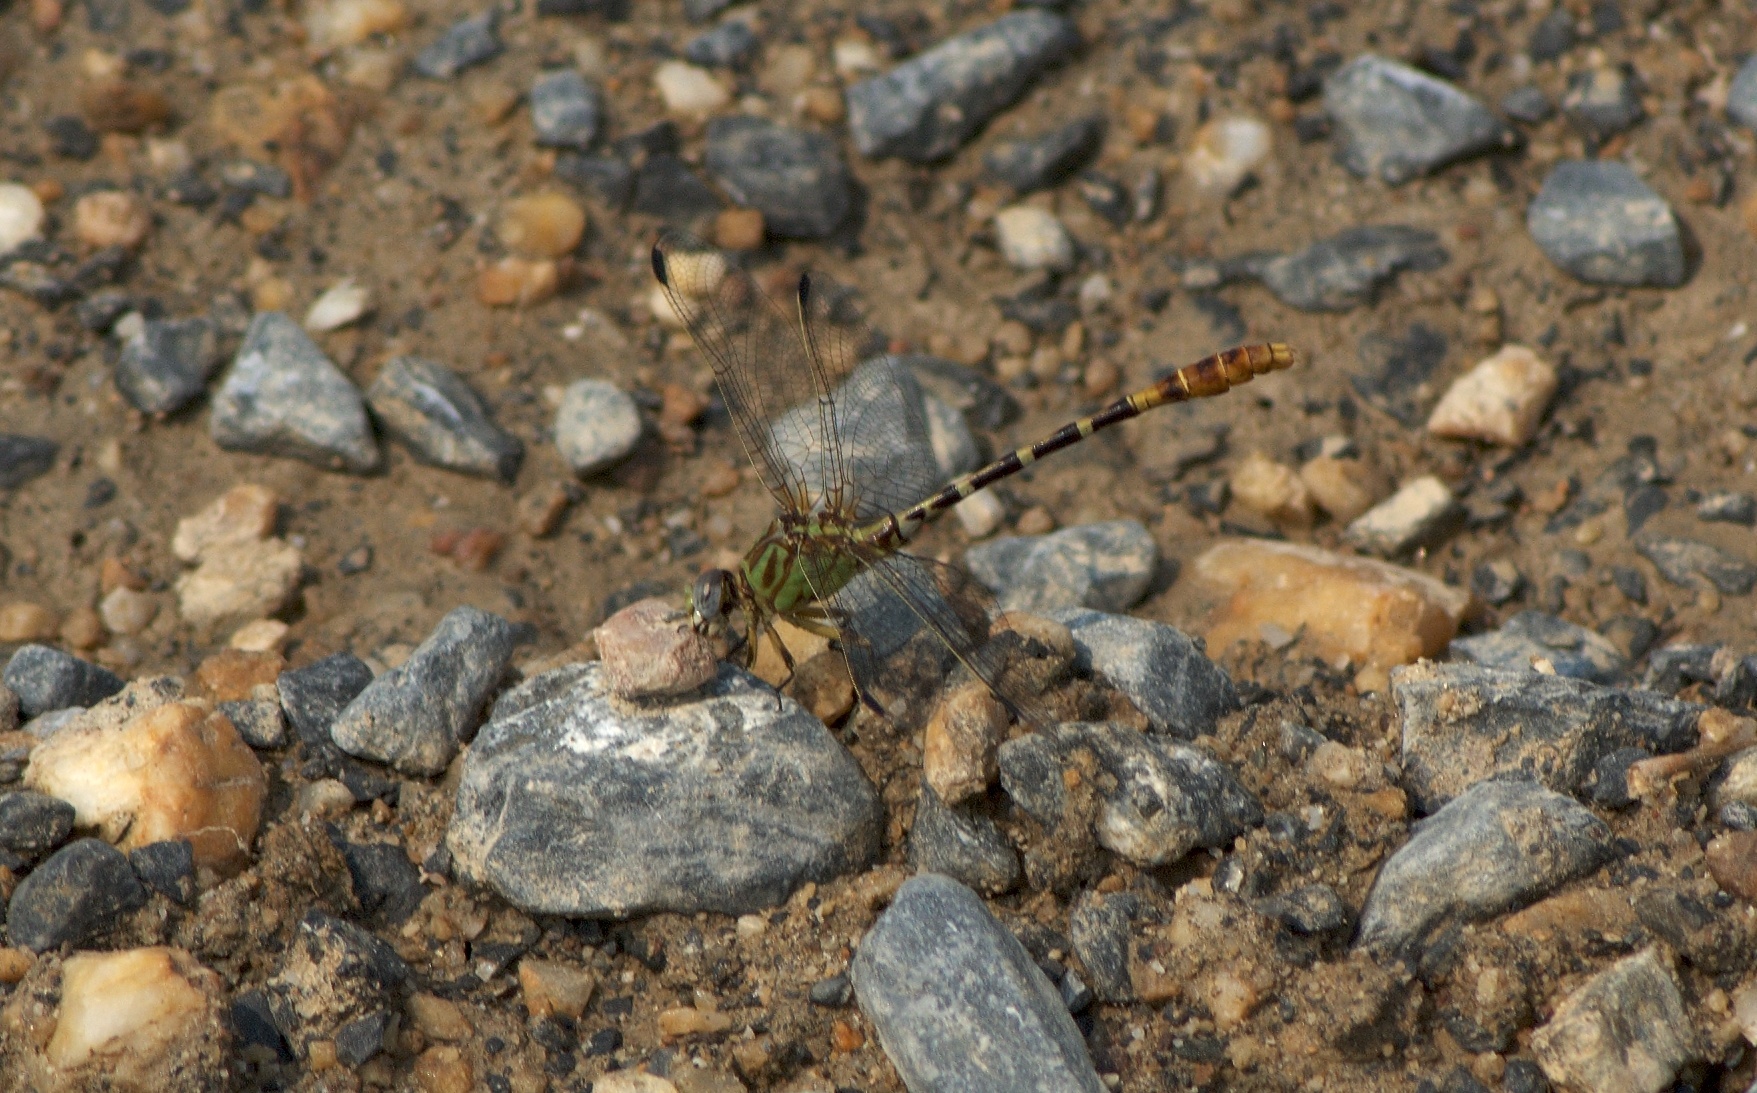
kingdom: Animalia
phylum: Arthropoda
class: Insecta
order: Odonata
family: Gomphidae
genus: Erpetogomphus
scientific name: Erpetogomphus designatus
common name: Eastern ringtail
